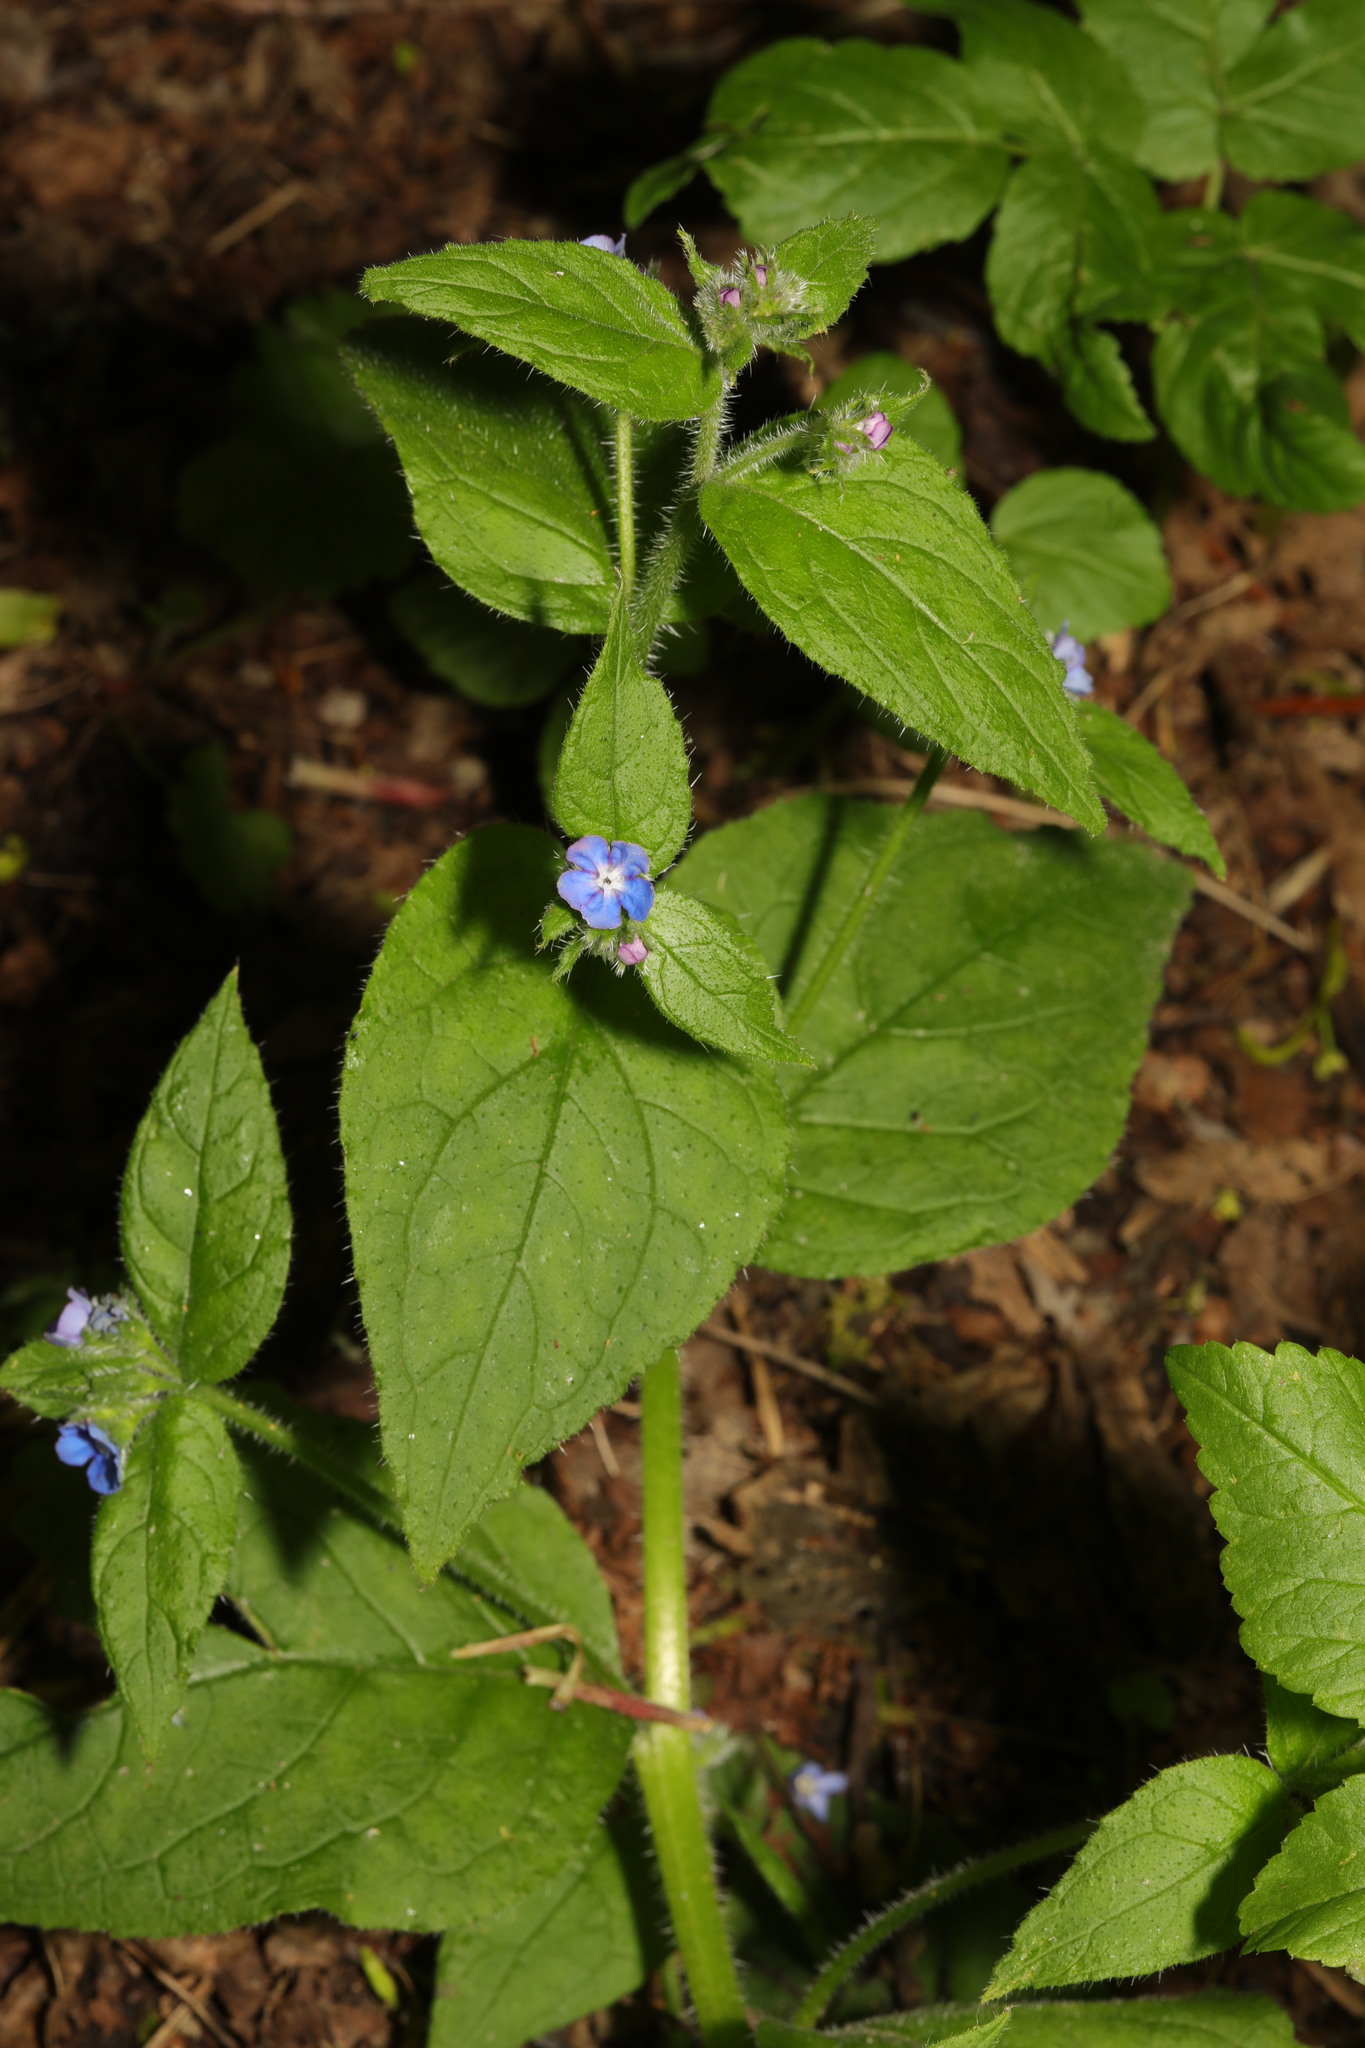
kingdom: Plantae
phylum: Tracheophyta
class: Magnoliopsida
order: Boraginales
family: Boraginaceae
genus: Pentaglottis
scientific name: Pentaglottis sempervirens
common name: Green alkanet
